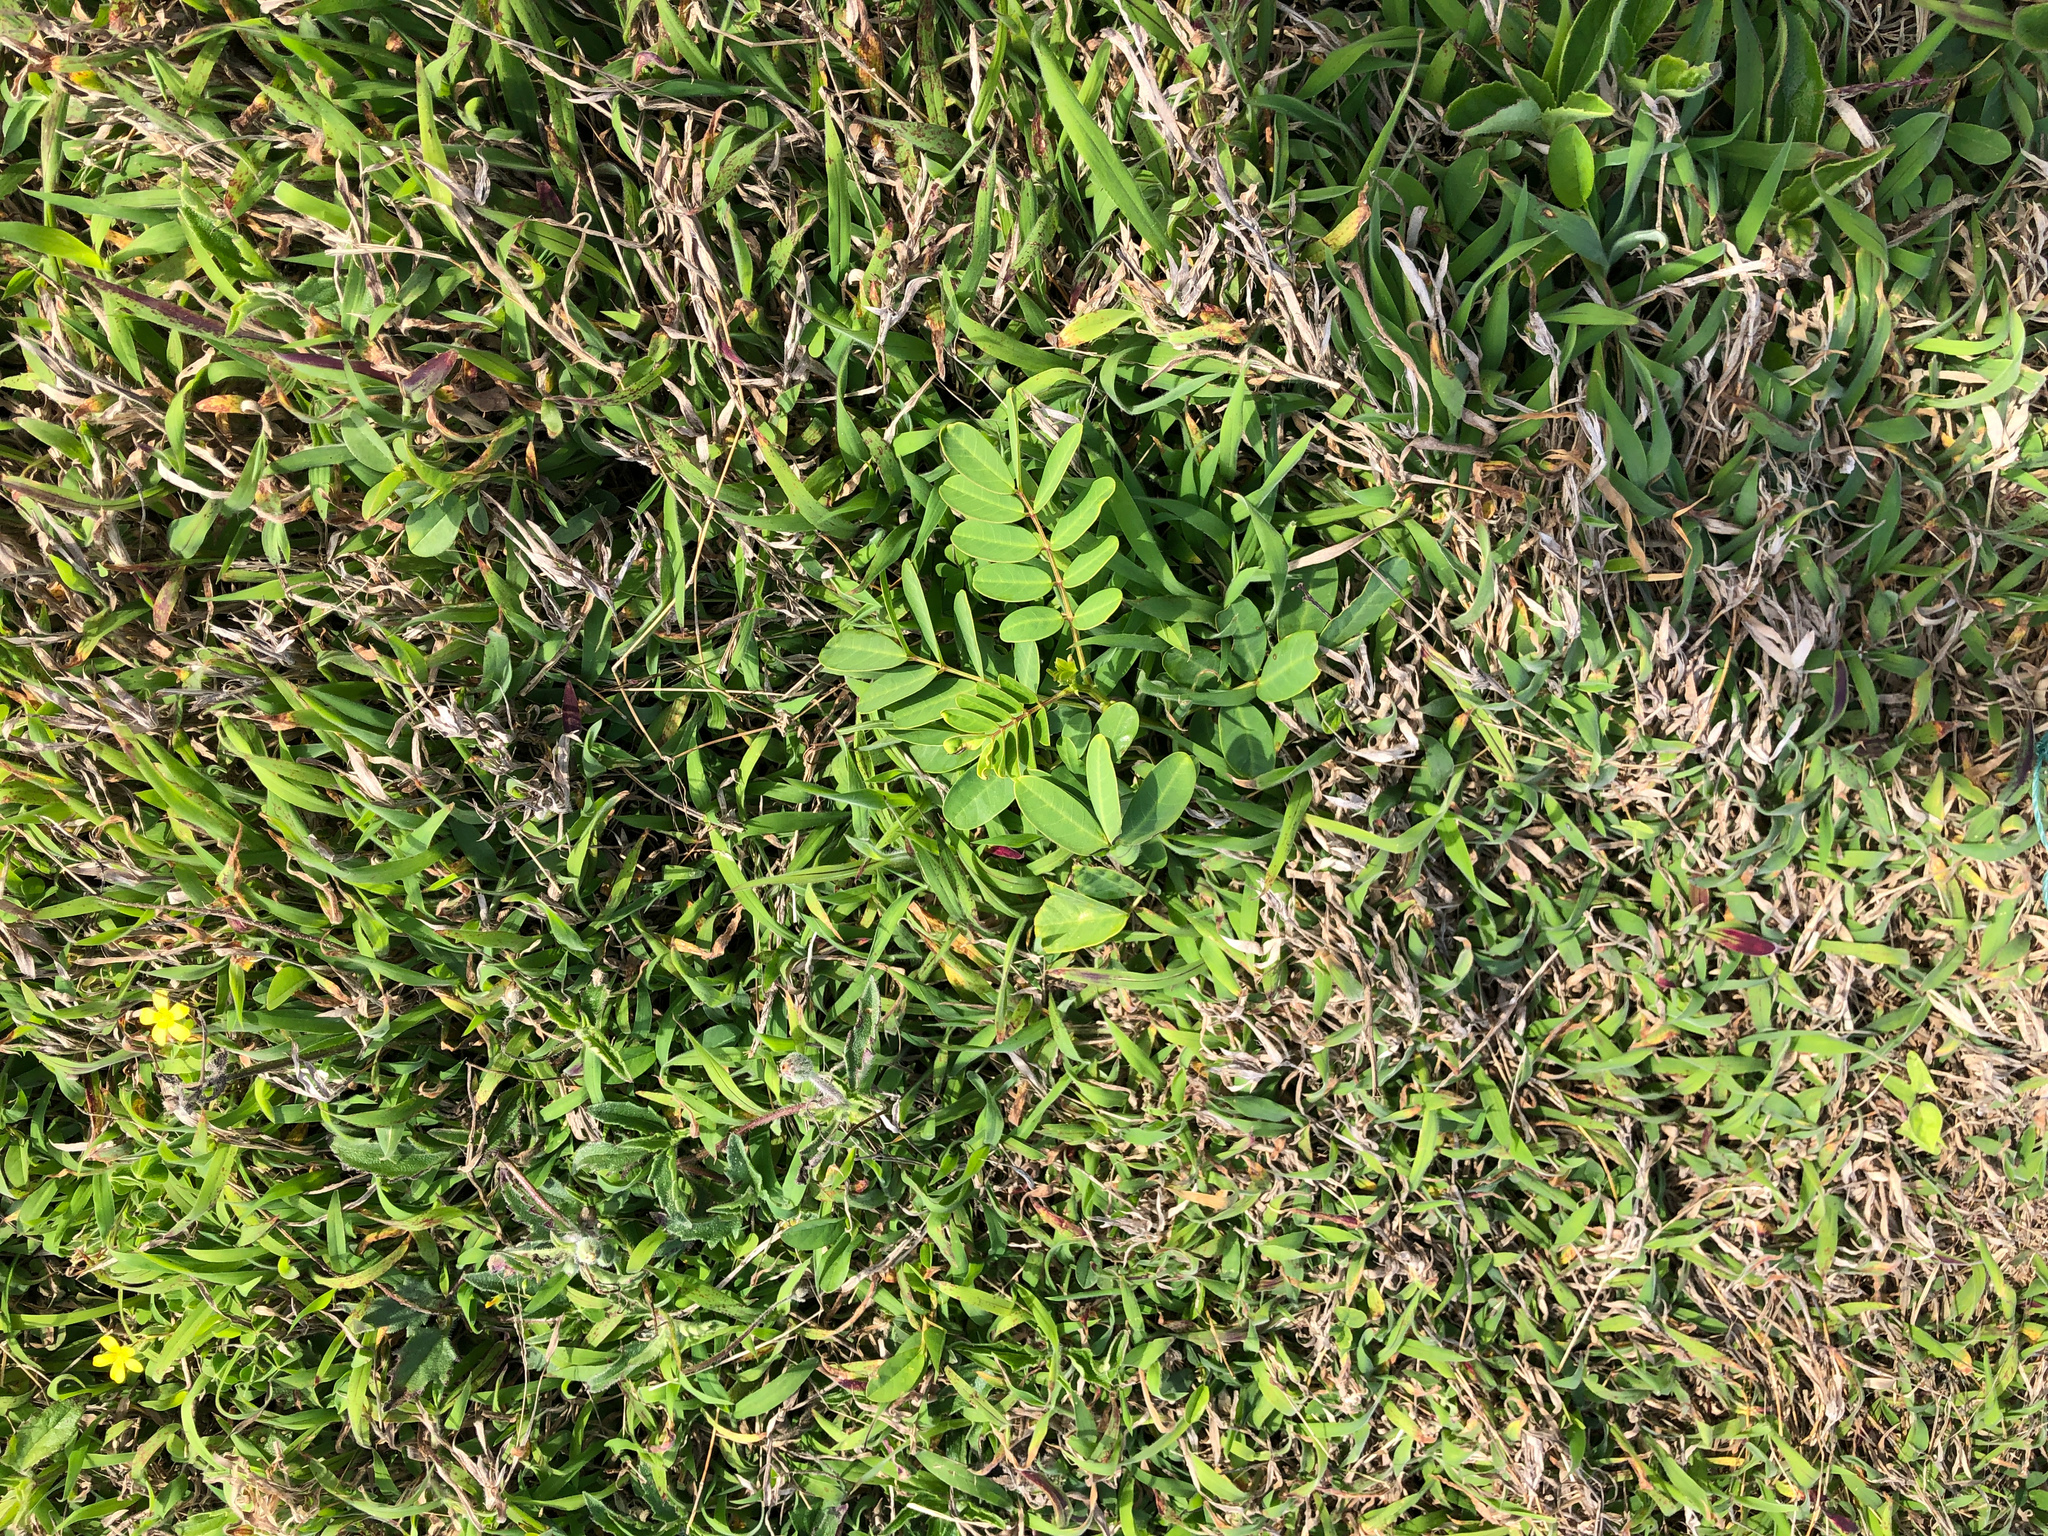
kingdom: Plantae
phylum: Tracheophyta
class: Magnoliopsida
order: Fabales
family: Fabaceae
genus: Senna
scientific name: Senna sophera
